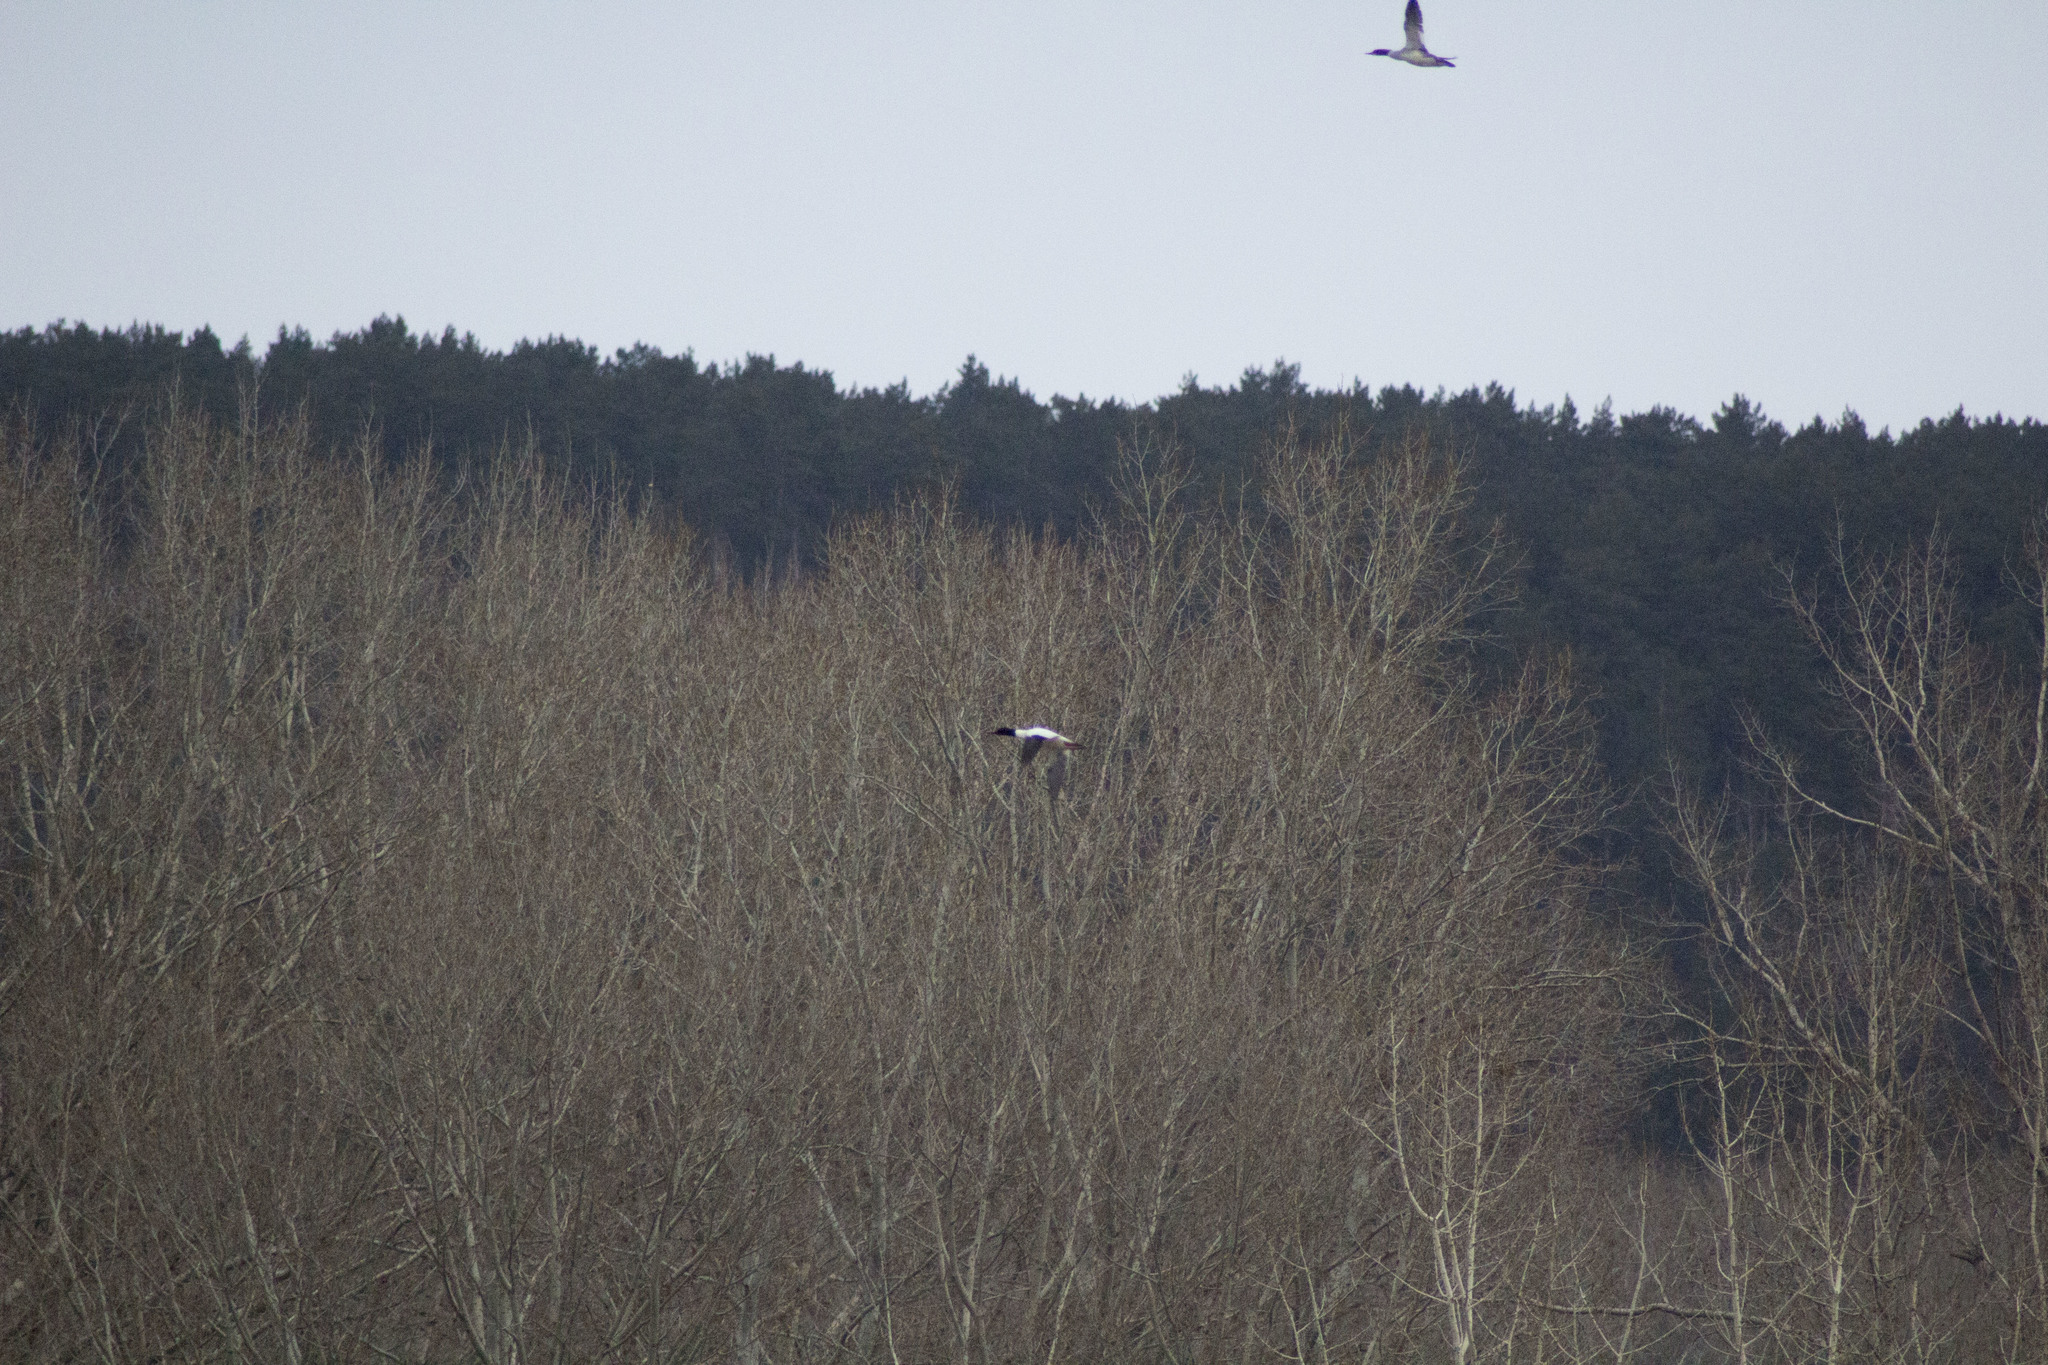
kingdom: Animalia
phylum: Chordata
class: Aves
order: Anseriformes
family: Anatidae
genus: Mergus
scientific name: Mergus merganser
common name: Common merganser
